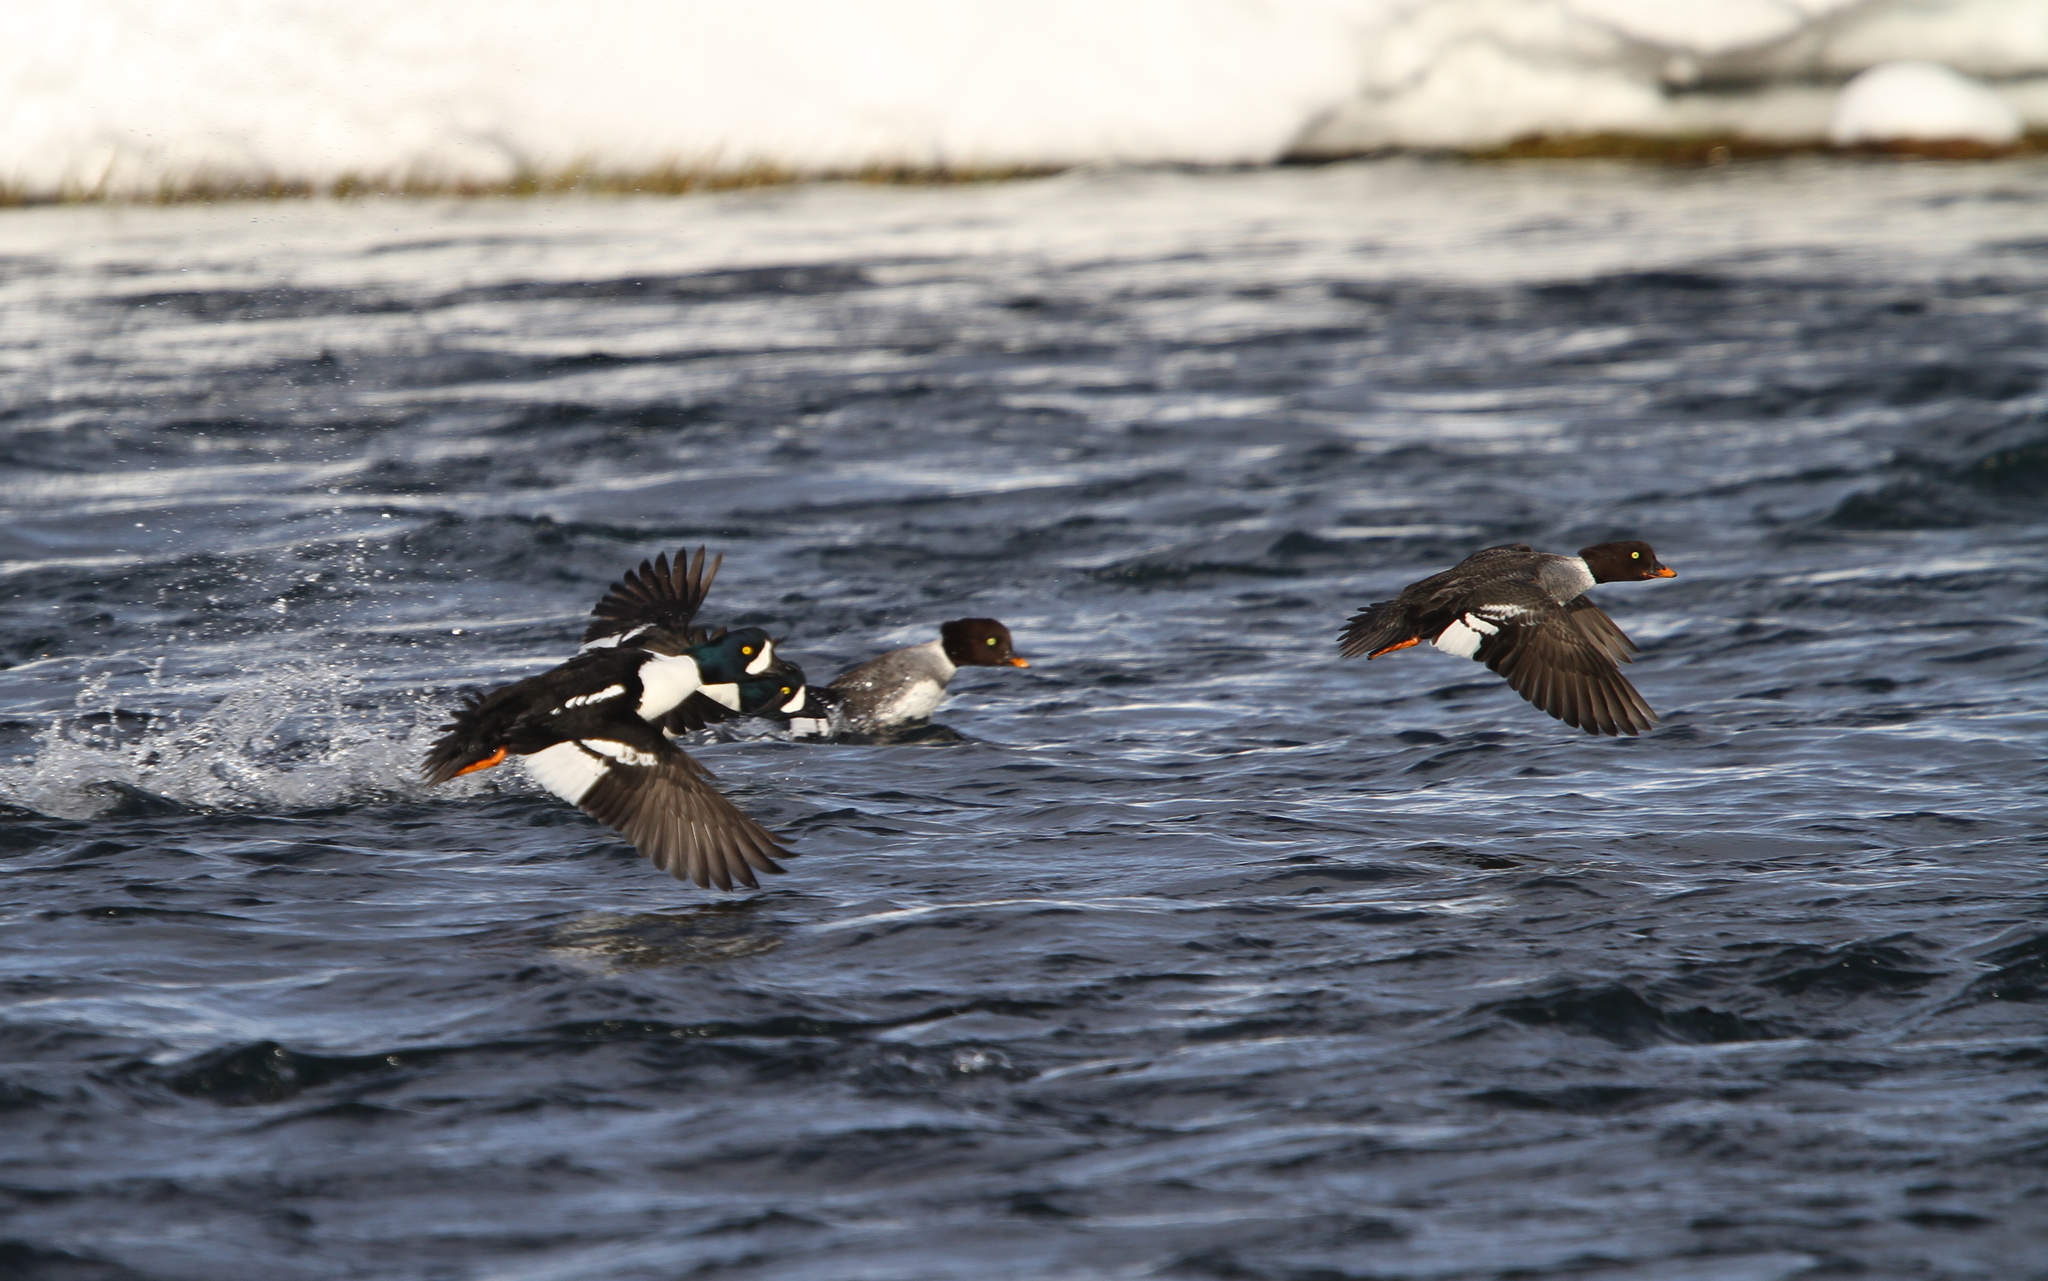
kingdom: Animalia
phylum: Chordata
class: Aves
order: Anseriformes
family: Anatidae
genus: Bucephala
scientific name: Bucephala islandica
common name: Barrow's goldeneye
